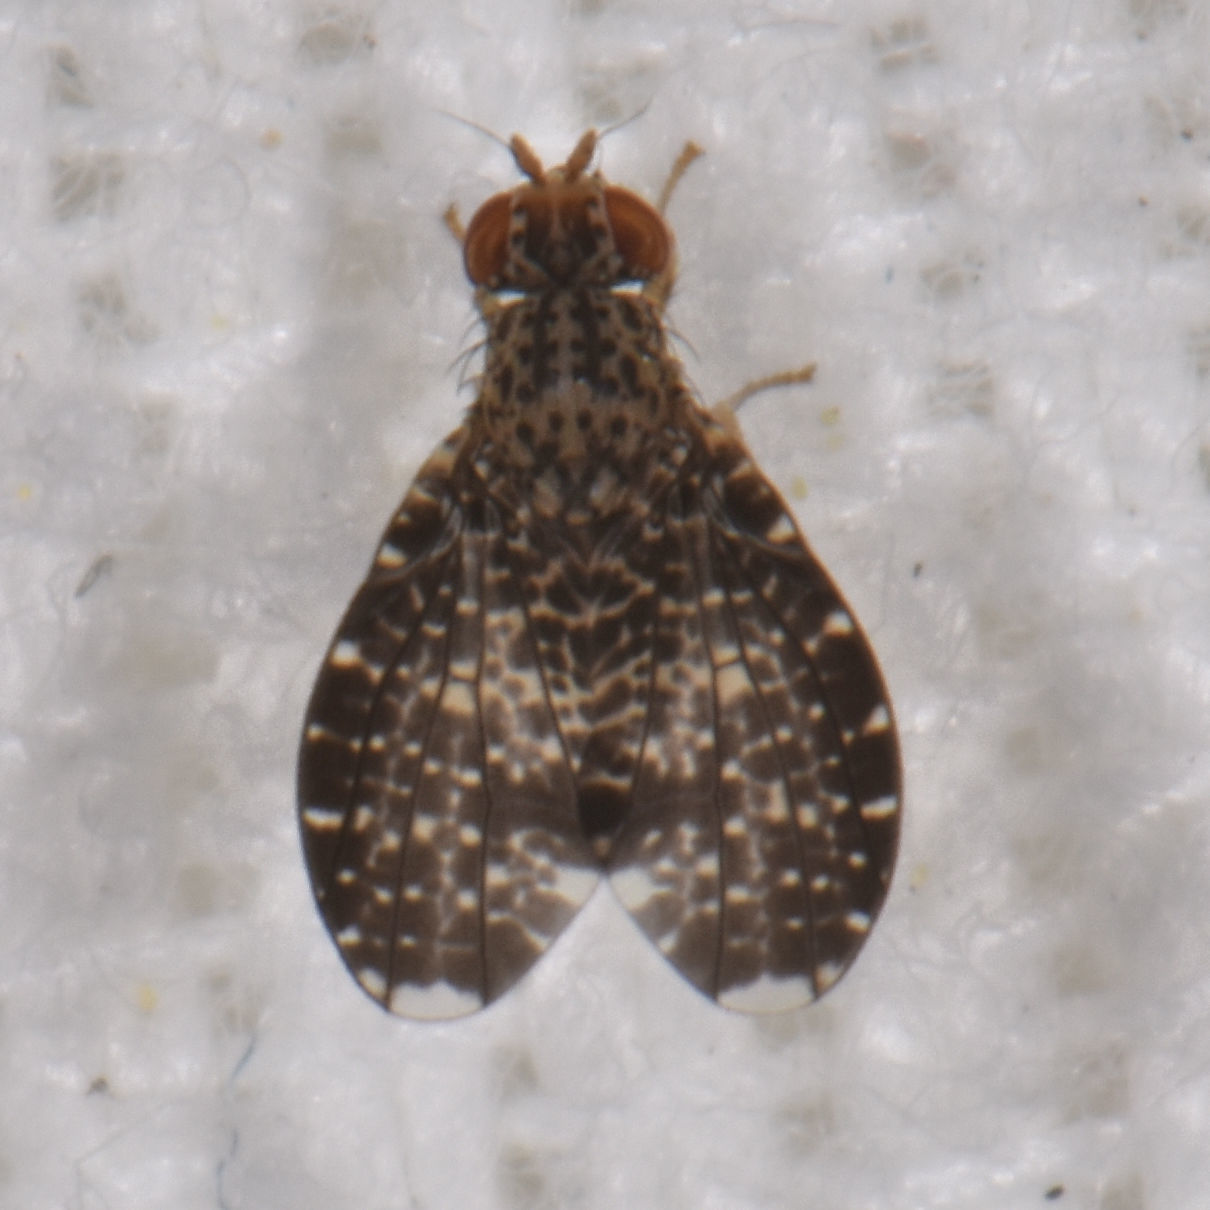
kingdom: Animalia
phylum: Arthropoda
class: Insecta
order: Diptera
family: Lauxaniidae
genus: Trypetisoma
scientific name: Trypetisoma sticticum
